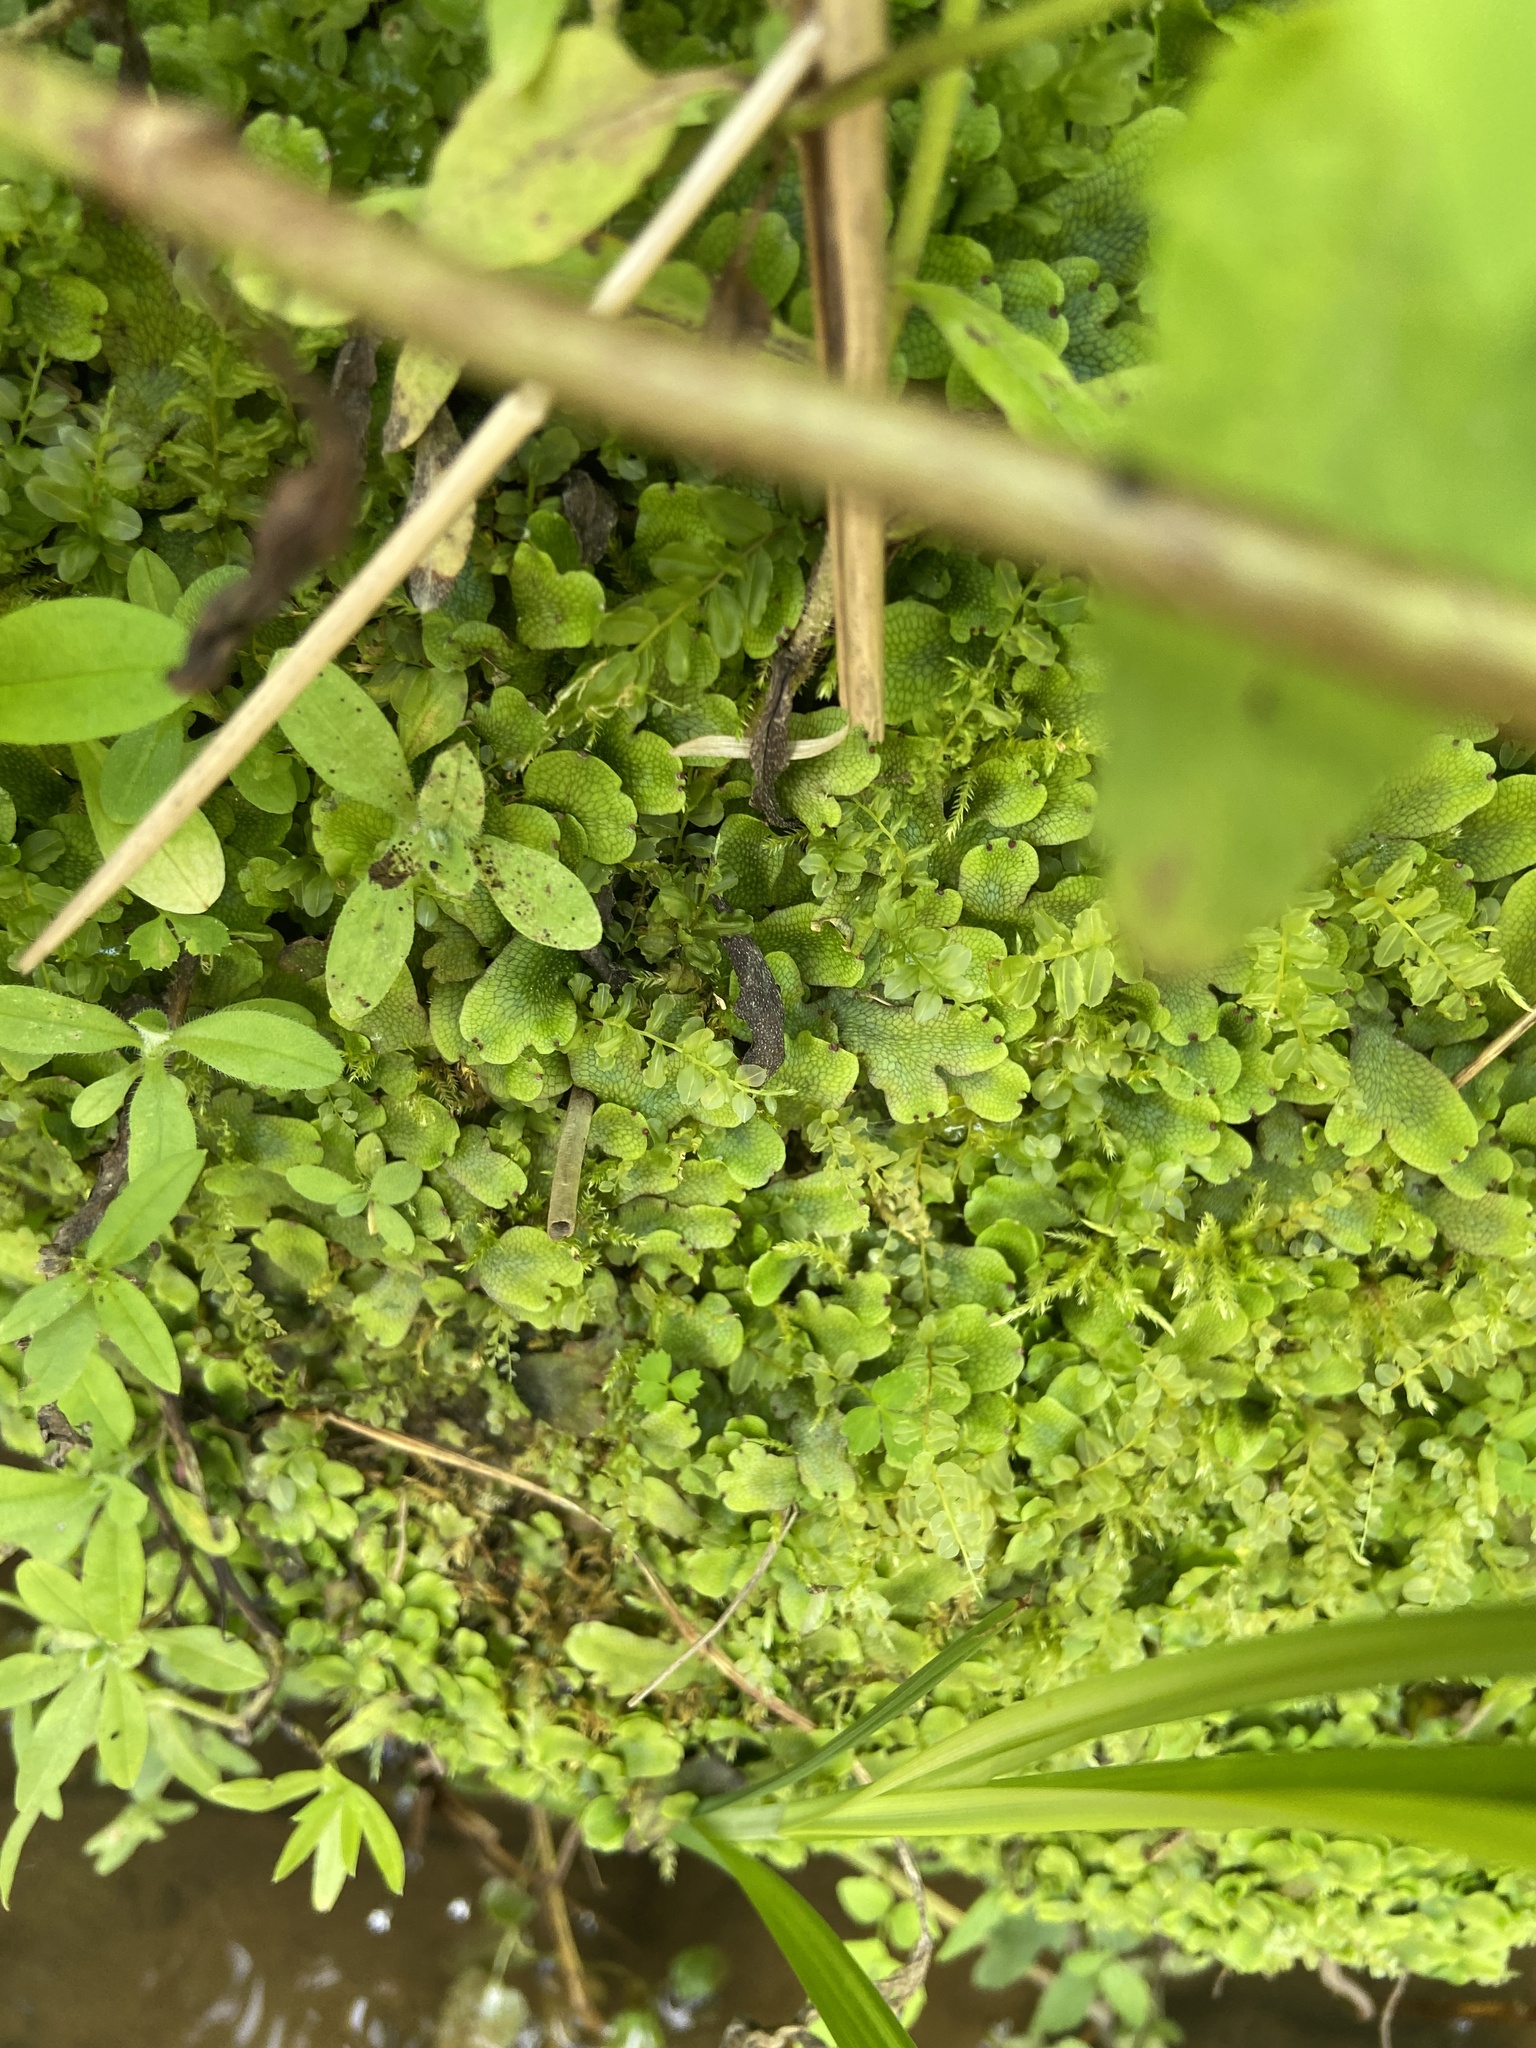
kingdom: Plantae
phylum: Marchantiophyta
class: Marchantiopsida
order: Marchantiales
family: Conocephalaceae
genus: Conocephalum
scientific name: Conocephalum salebrosum
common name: Cat-tongue liverwort
